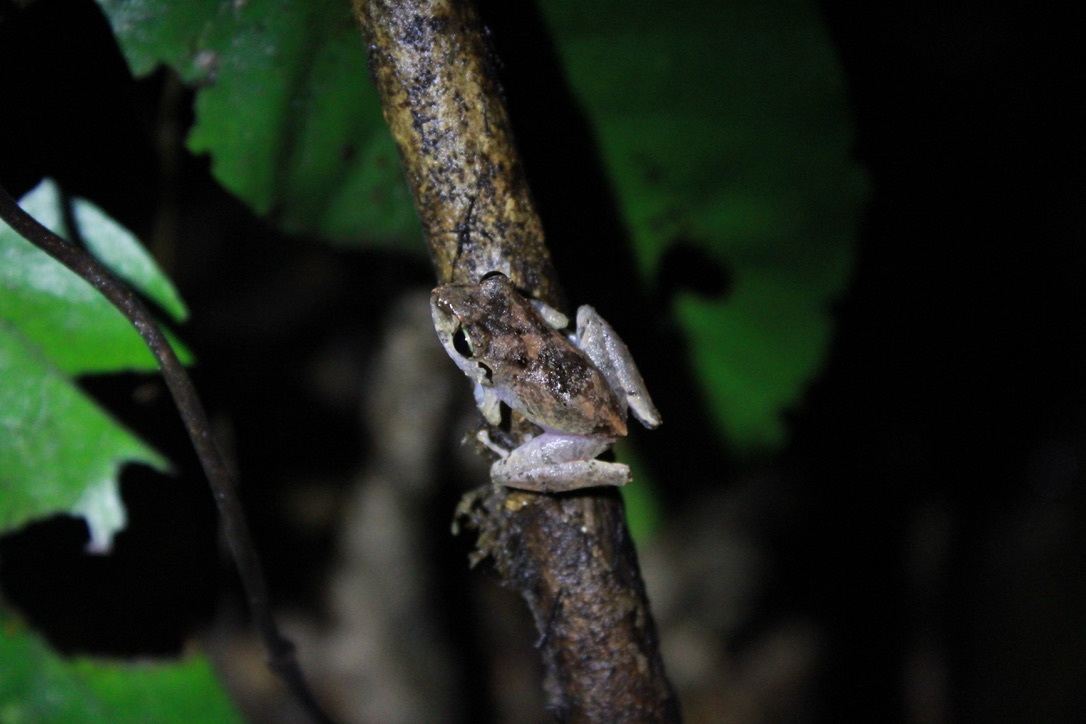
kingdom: Animalia
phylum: Chordata
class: Amphibia
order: Anura
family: Craugastoridae
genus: Pristimantis
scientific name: Pristimantis urichi
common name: Lesser antilles robber frog
